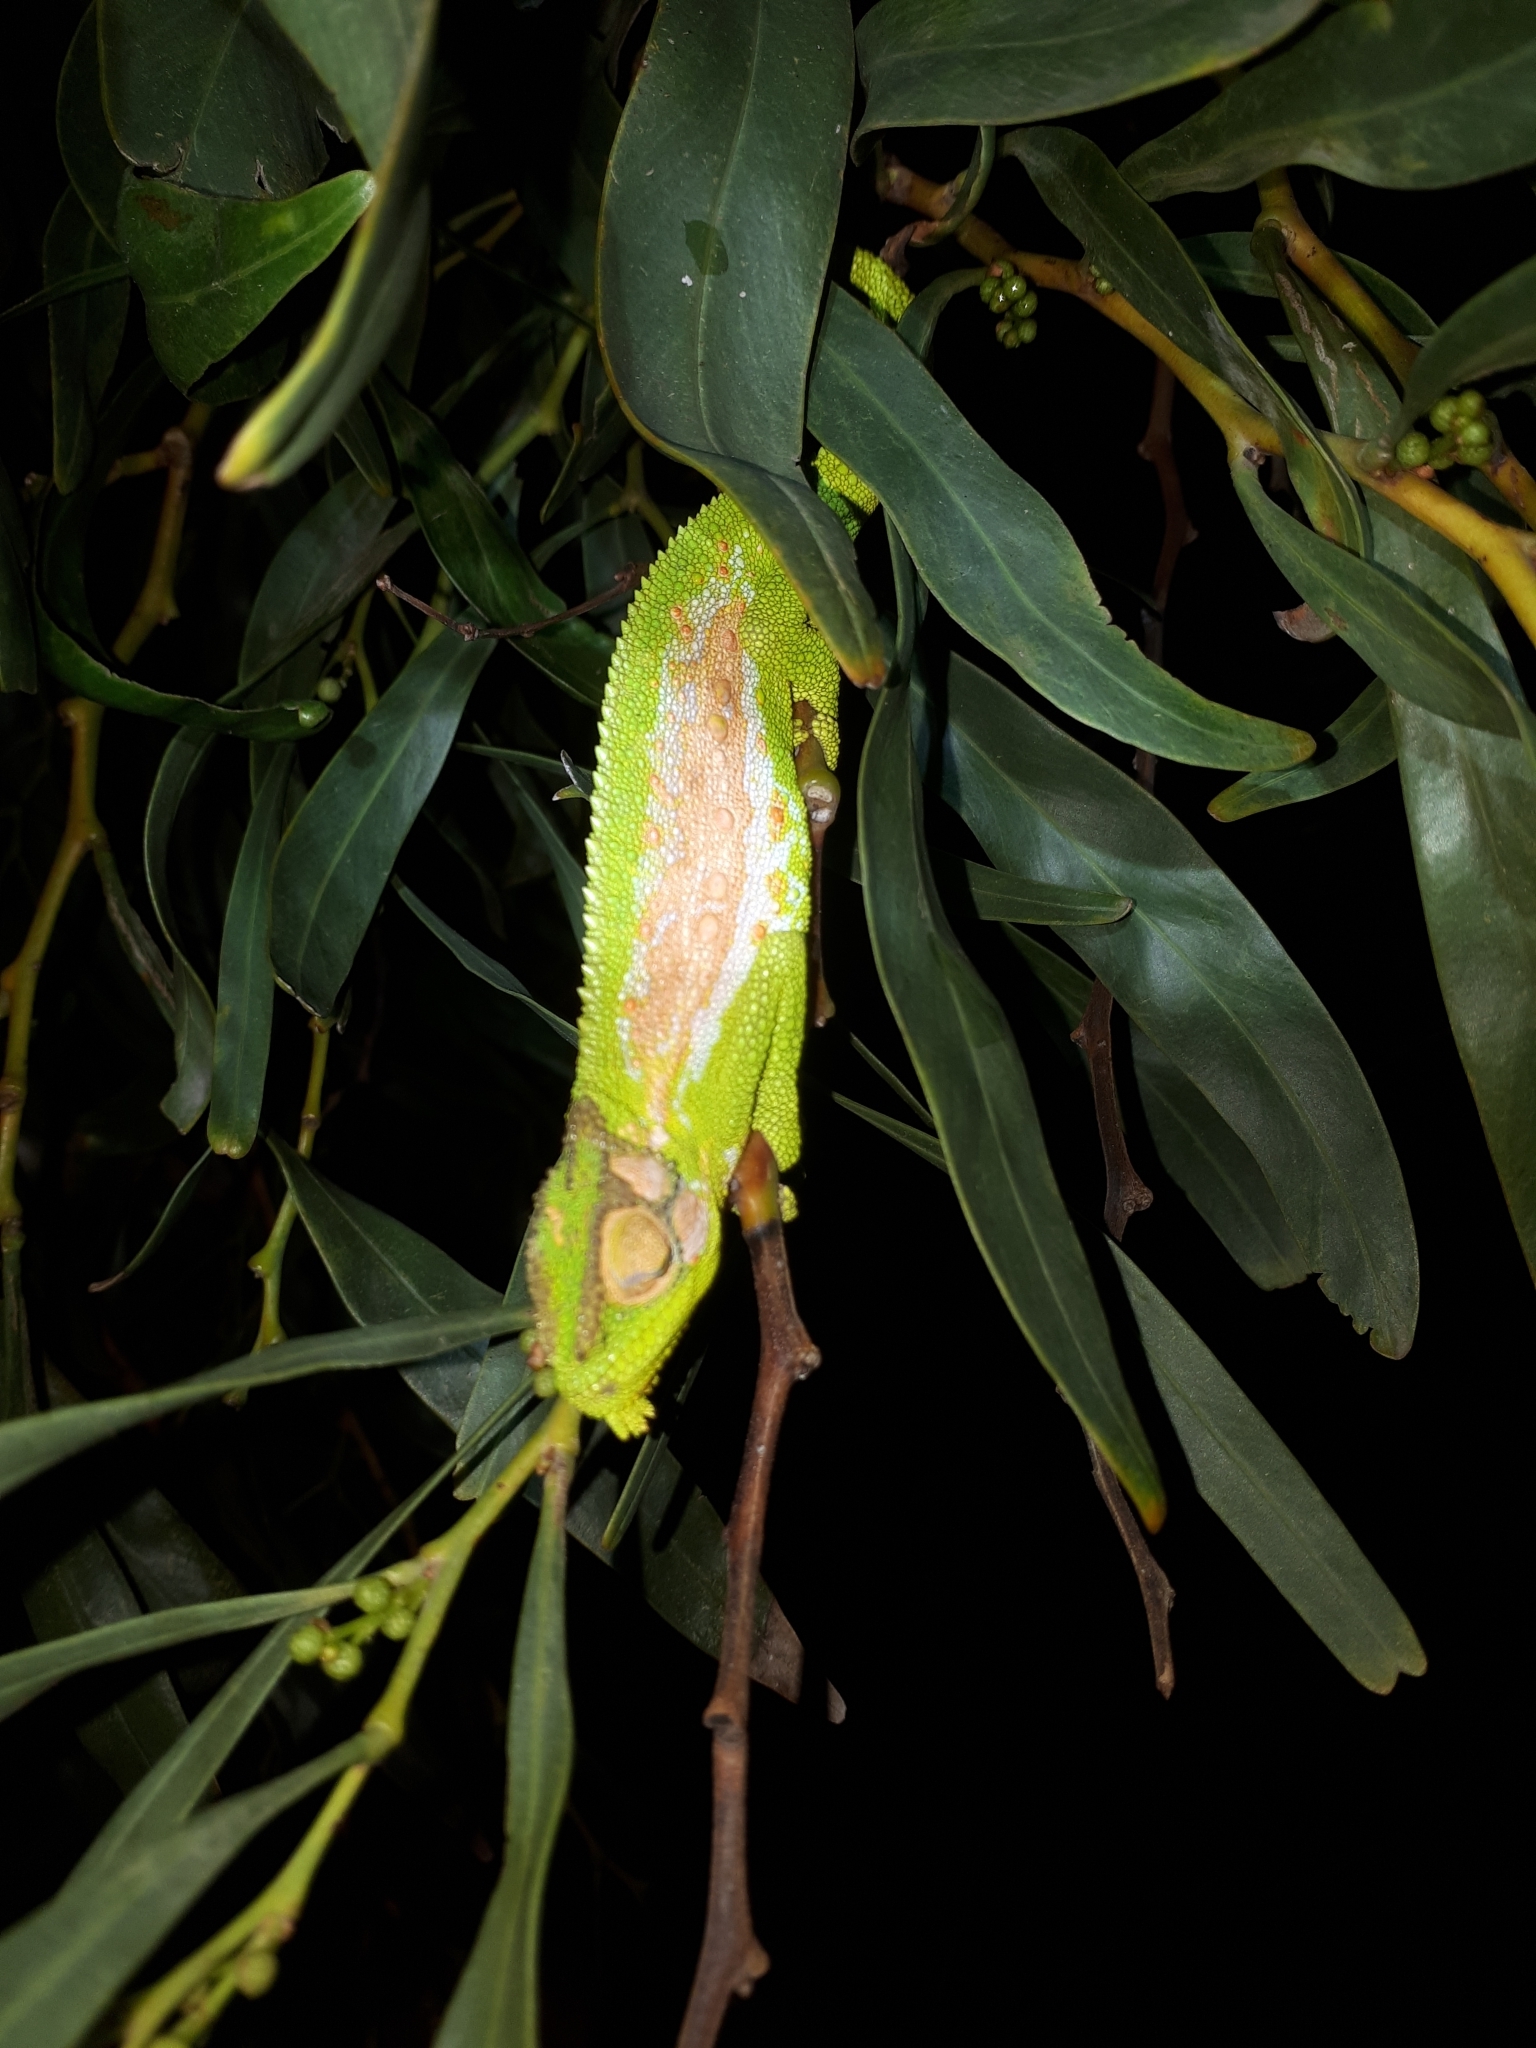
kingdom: Animalia
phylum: Chordata
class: Squamata
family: Chamaeleonidae
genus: Bradypodion
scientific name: Bradypodion pumilum
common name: Cape dwarf chameleon
